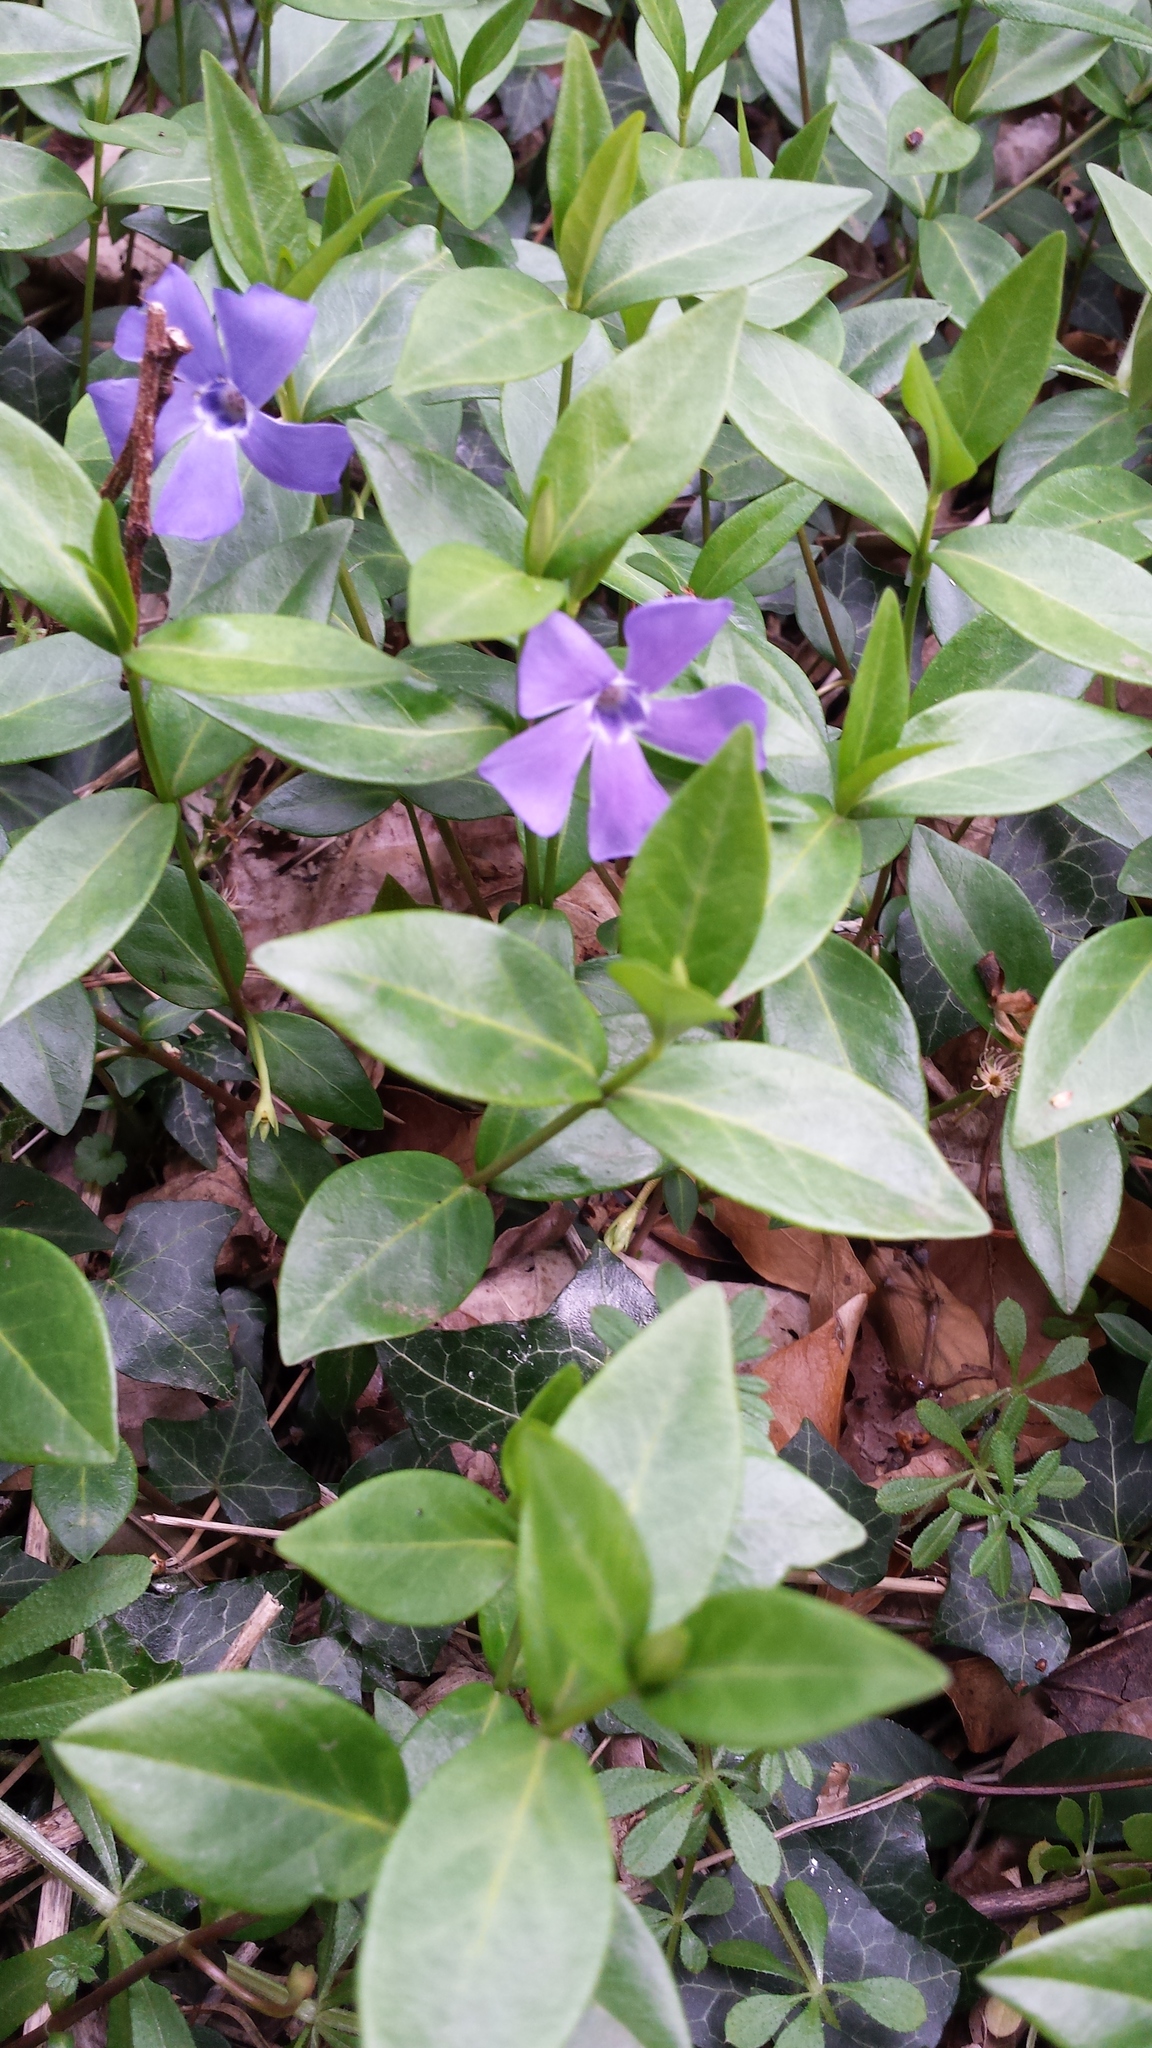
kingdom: Plantae
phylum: Tracheophyta
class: Magnoliopsida
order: Gentianales
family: Apocynaceae
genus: Vinca
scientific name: Vinca minor
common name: Lesser periwinkle
